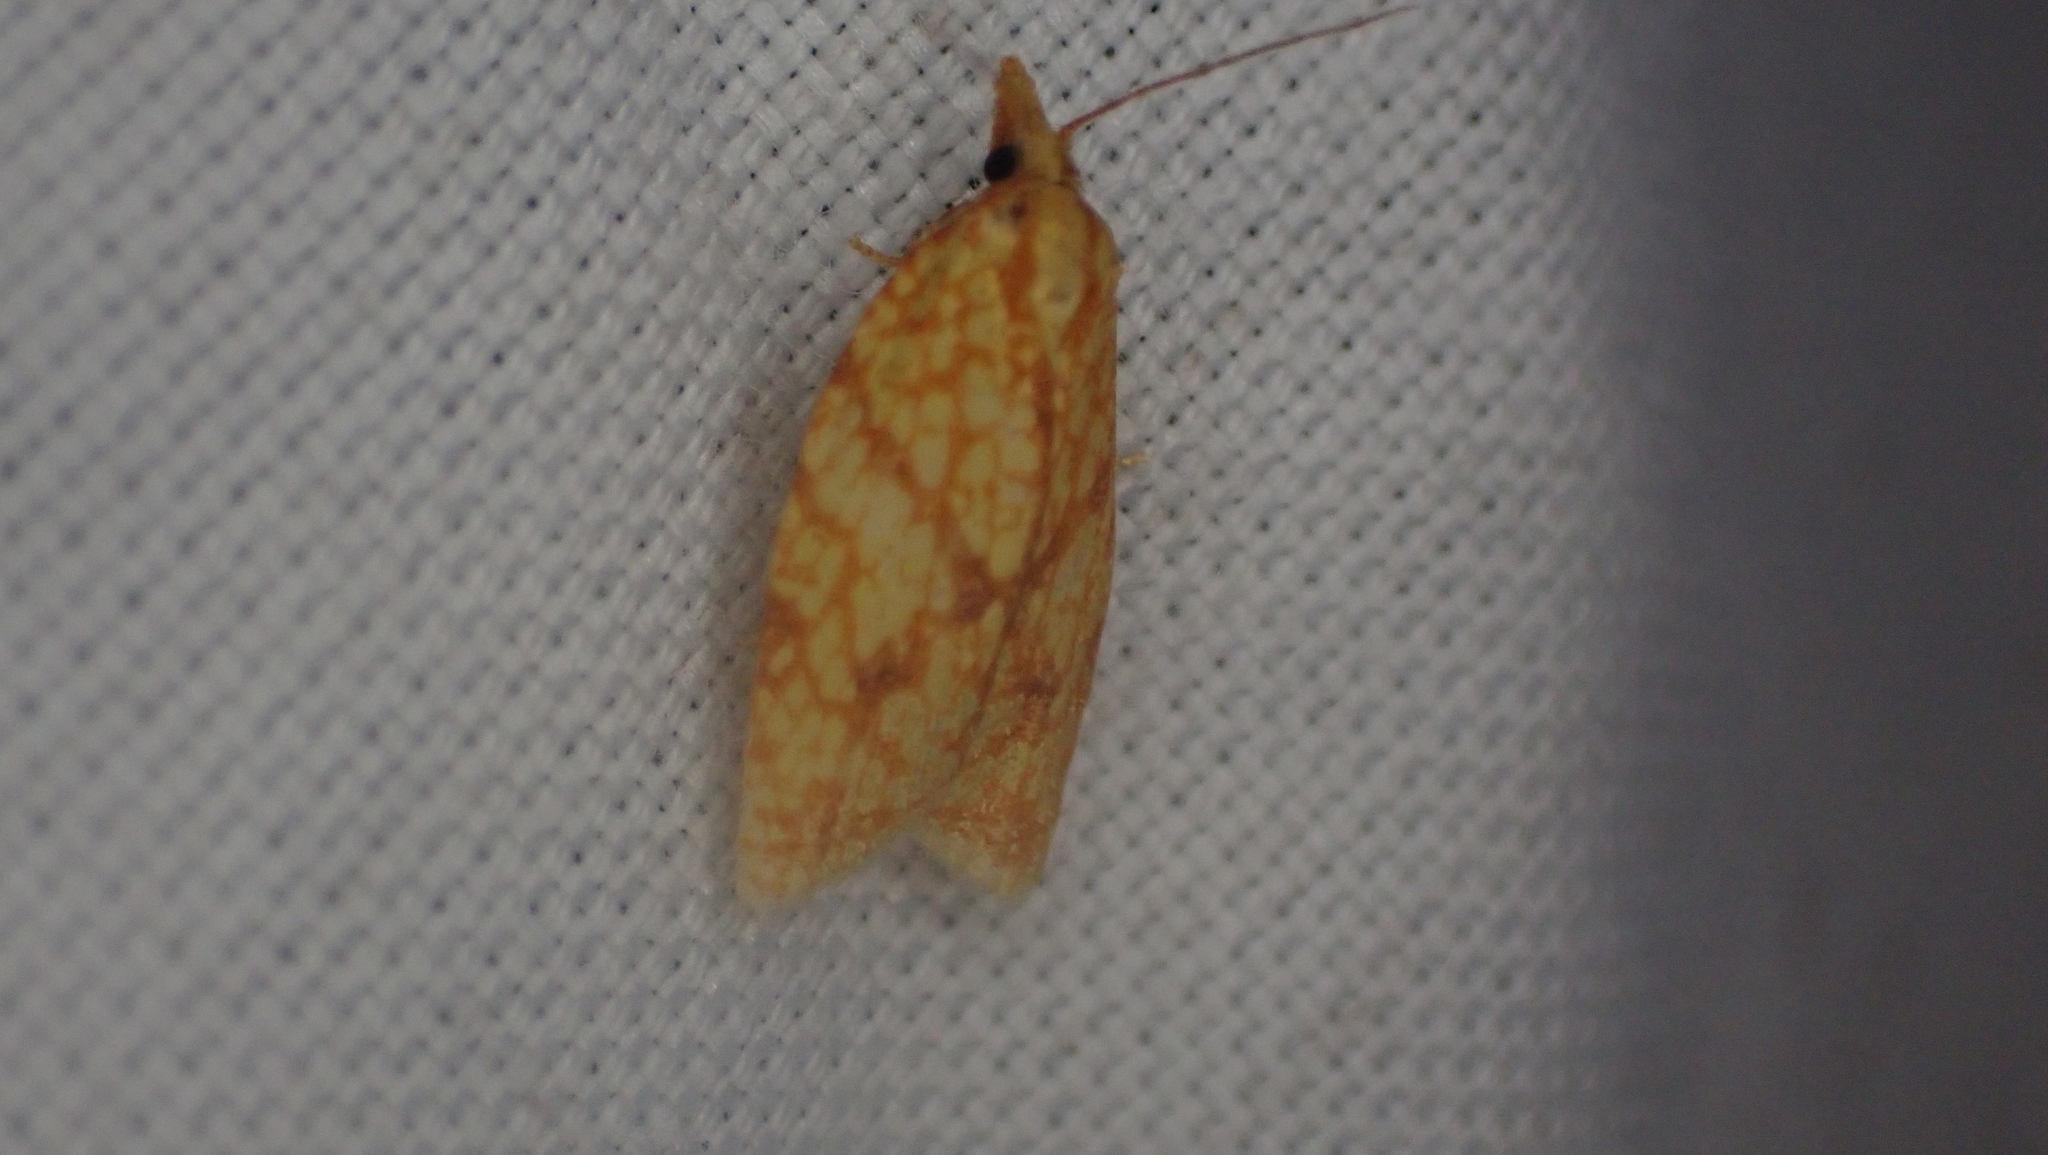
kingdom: Animalia
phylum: Arthropoda
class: Insecta
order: Lepidoptera
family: Tortricidae
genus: Sparganothis
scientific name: Sparganothis sulfureana
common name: Sparganothis fruitworm moth
